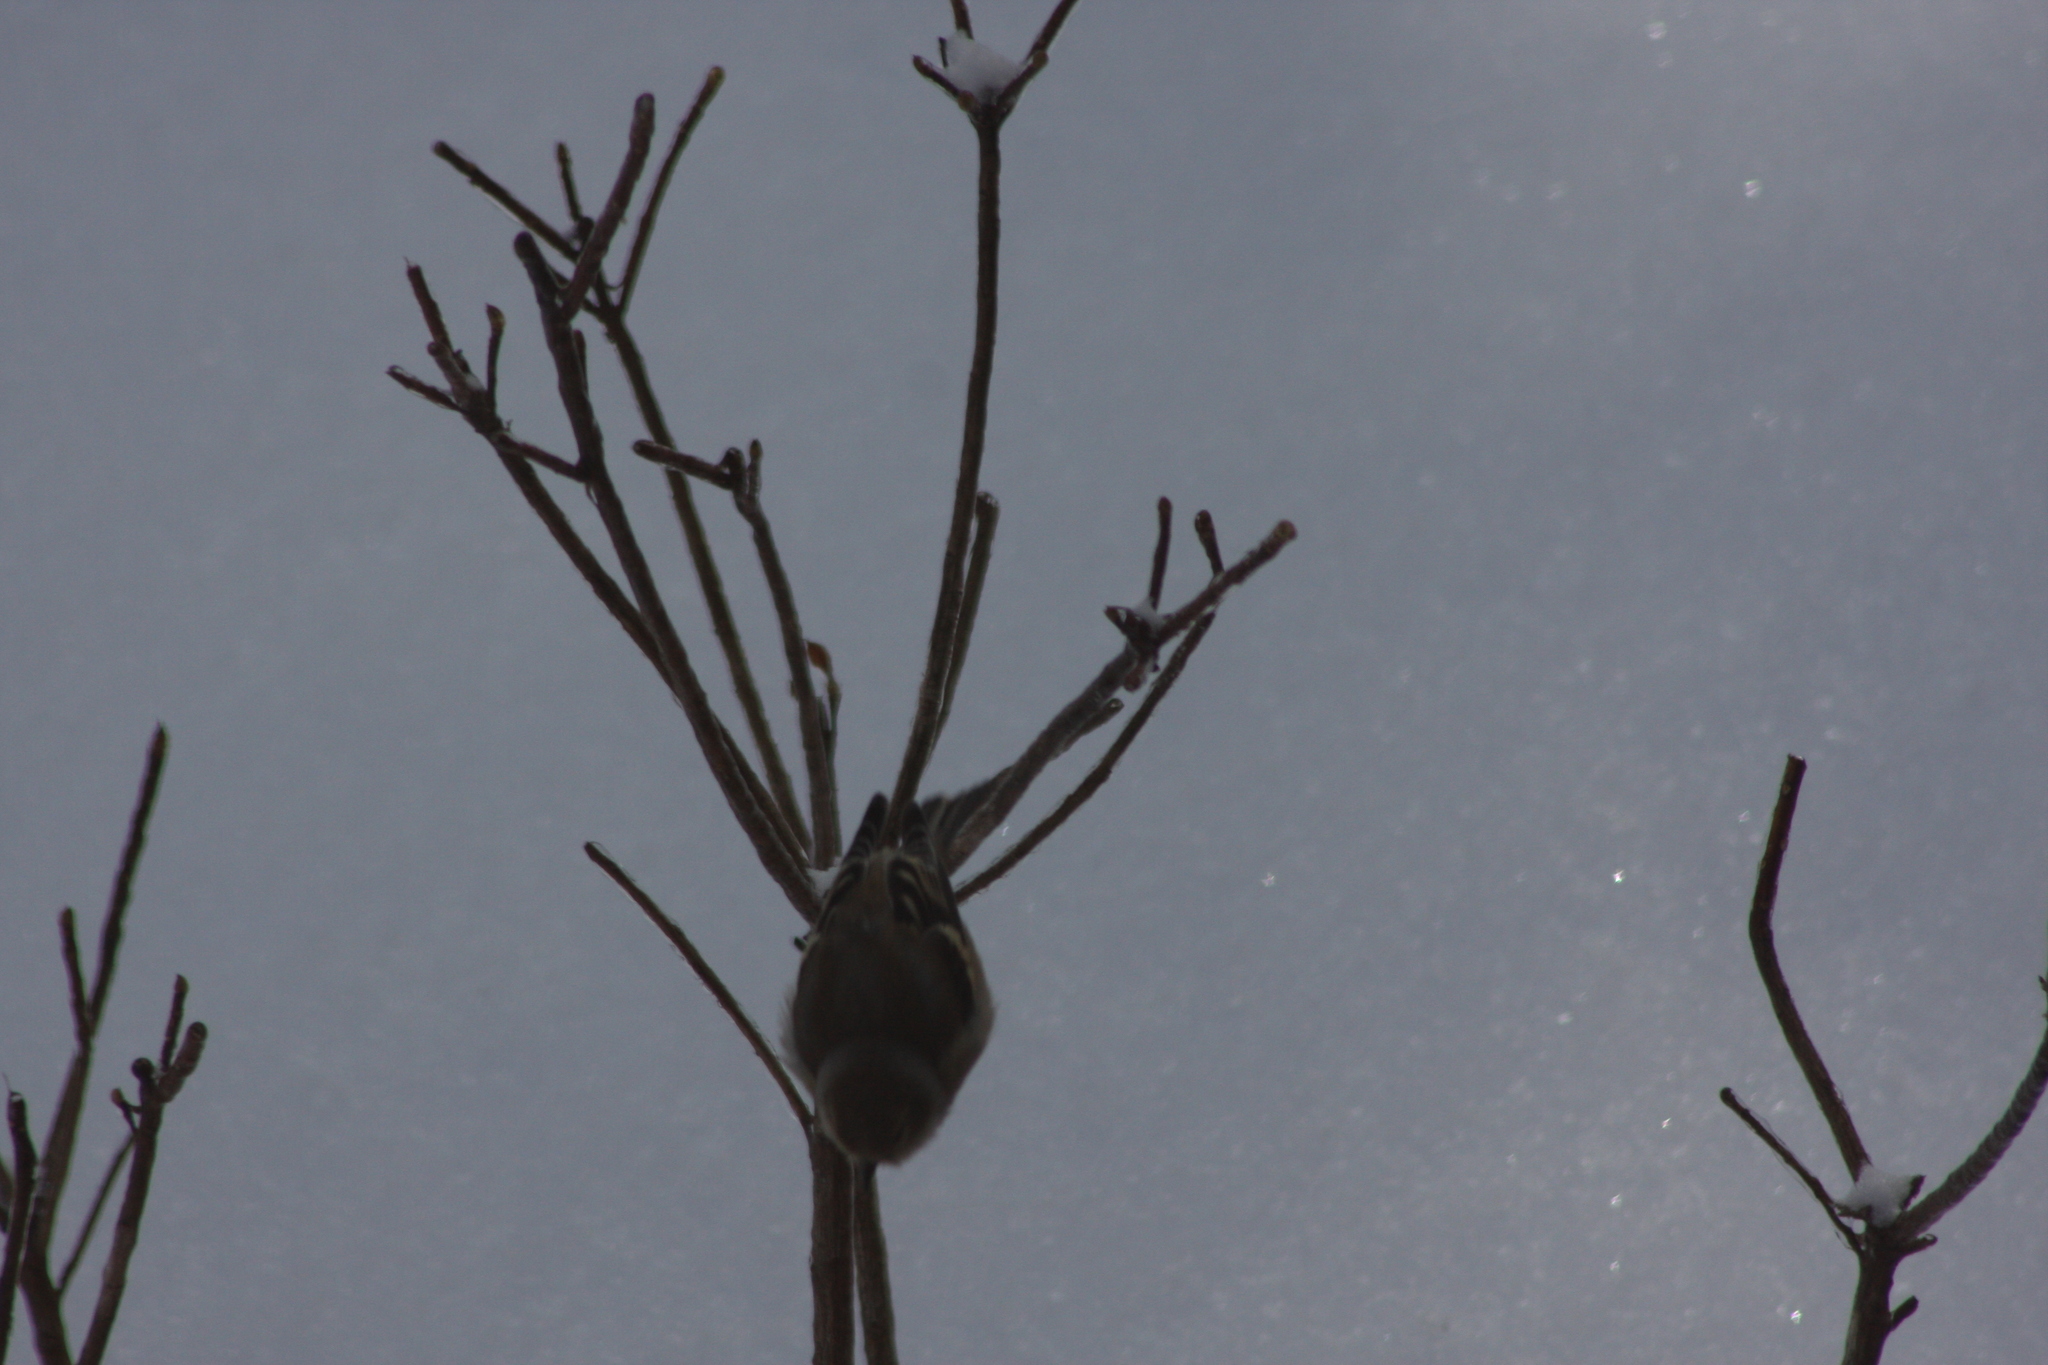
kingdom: Animalia
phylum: Chordata
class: Aves
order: Passeriformes
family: Fringillidae
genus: Spinus
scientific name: Spinus tristis
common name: American goldfinch
